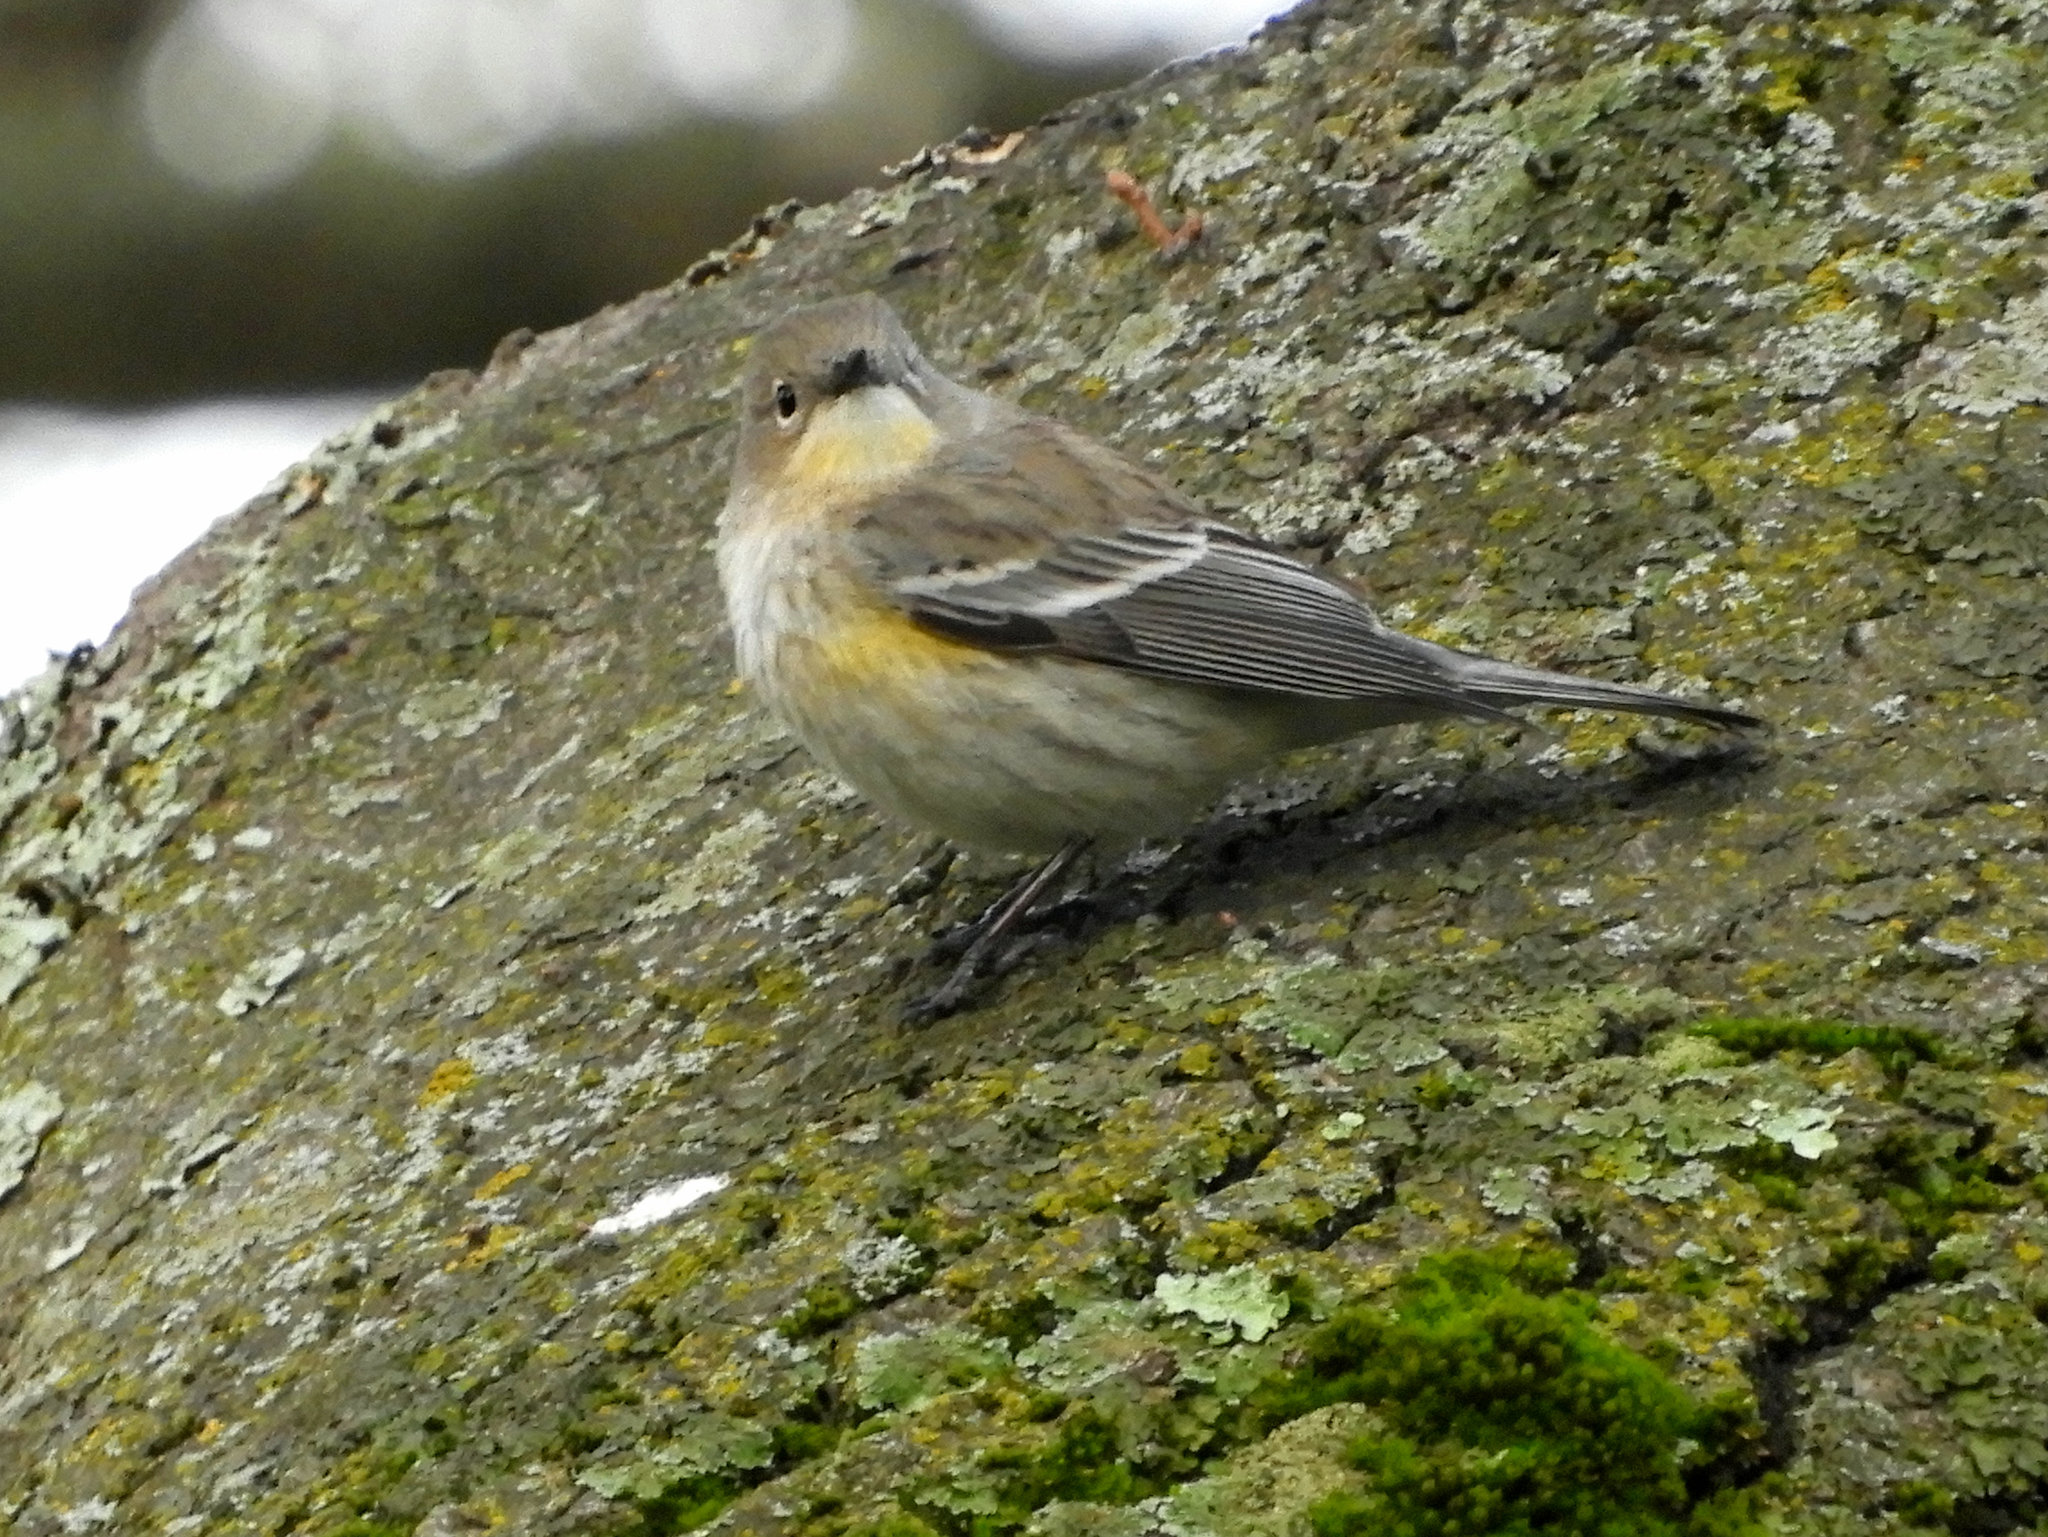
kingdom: Animalia
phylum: Chordata
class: Aves
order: Passeriformes
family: Parulidae
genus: Setophaga
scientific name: Setophaga auduboni
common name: Audubon's warbler
